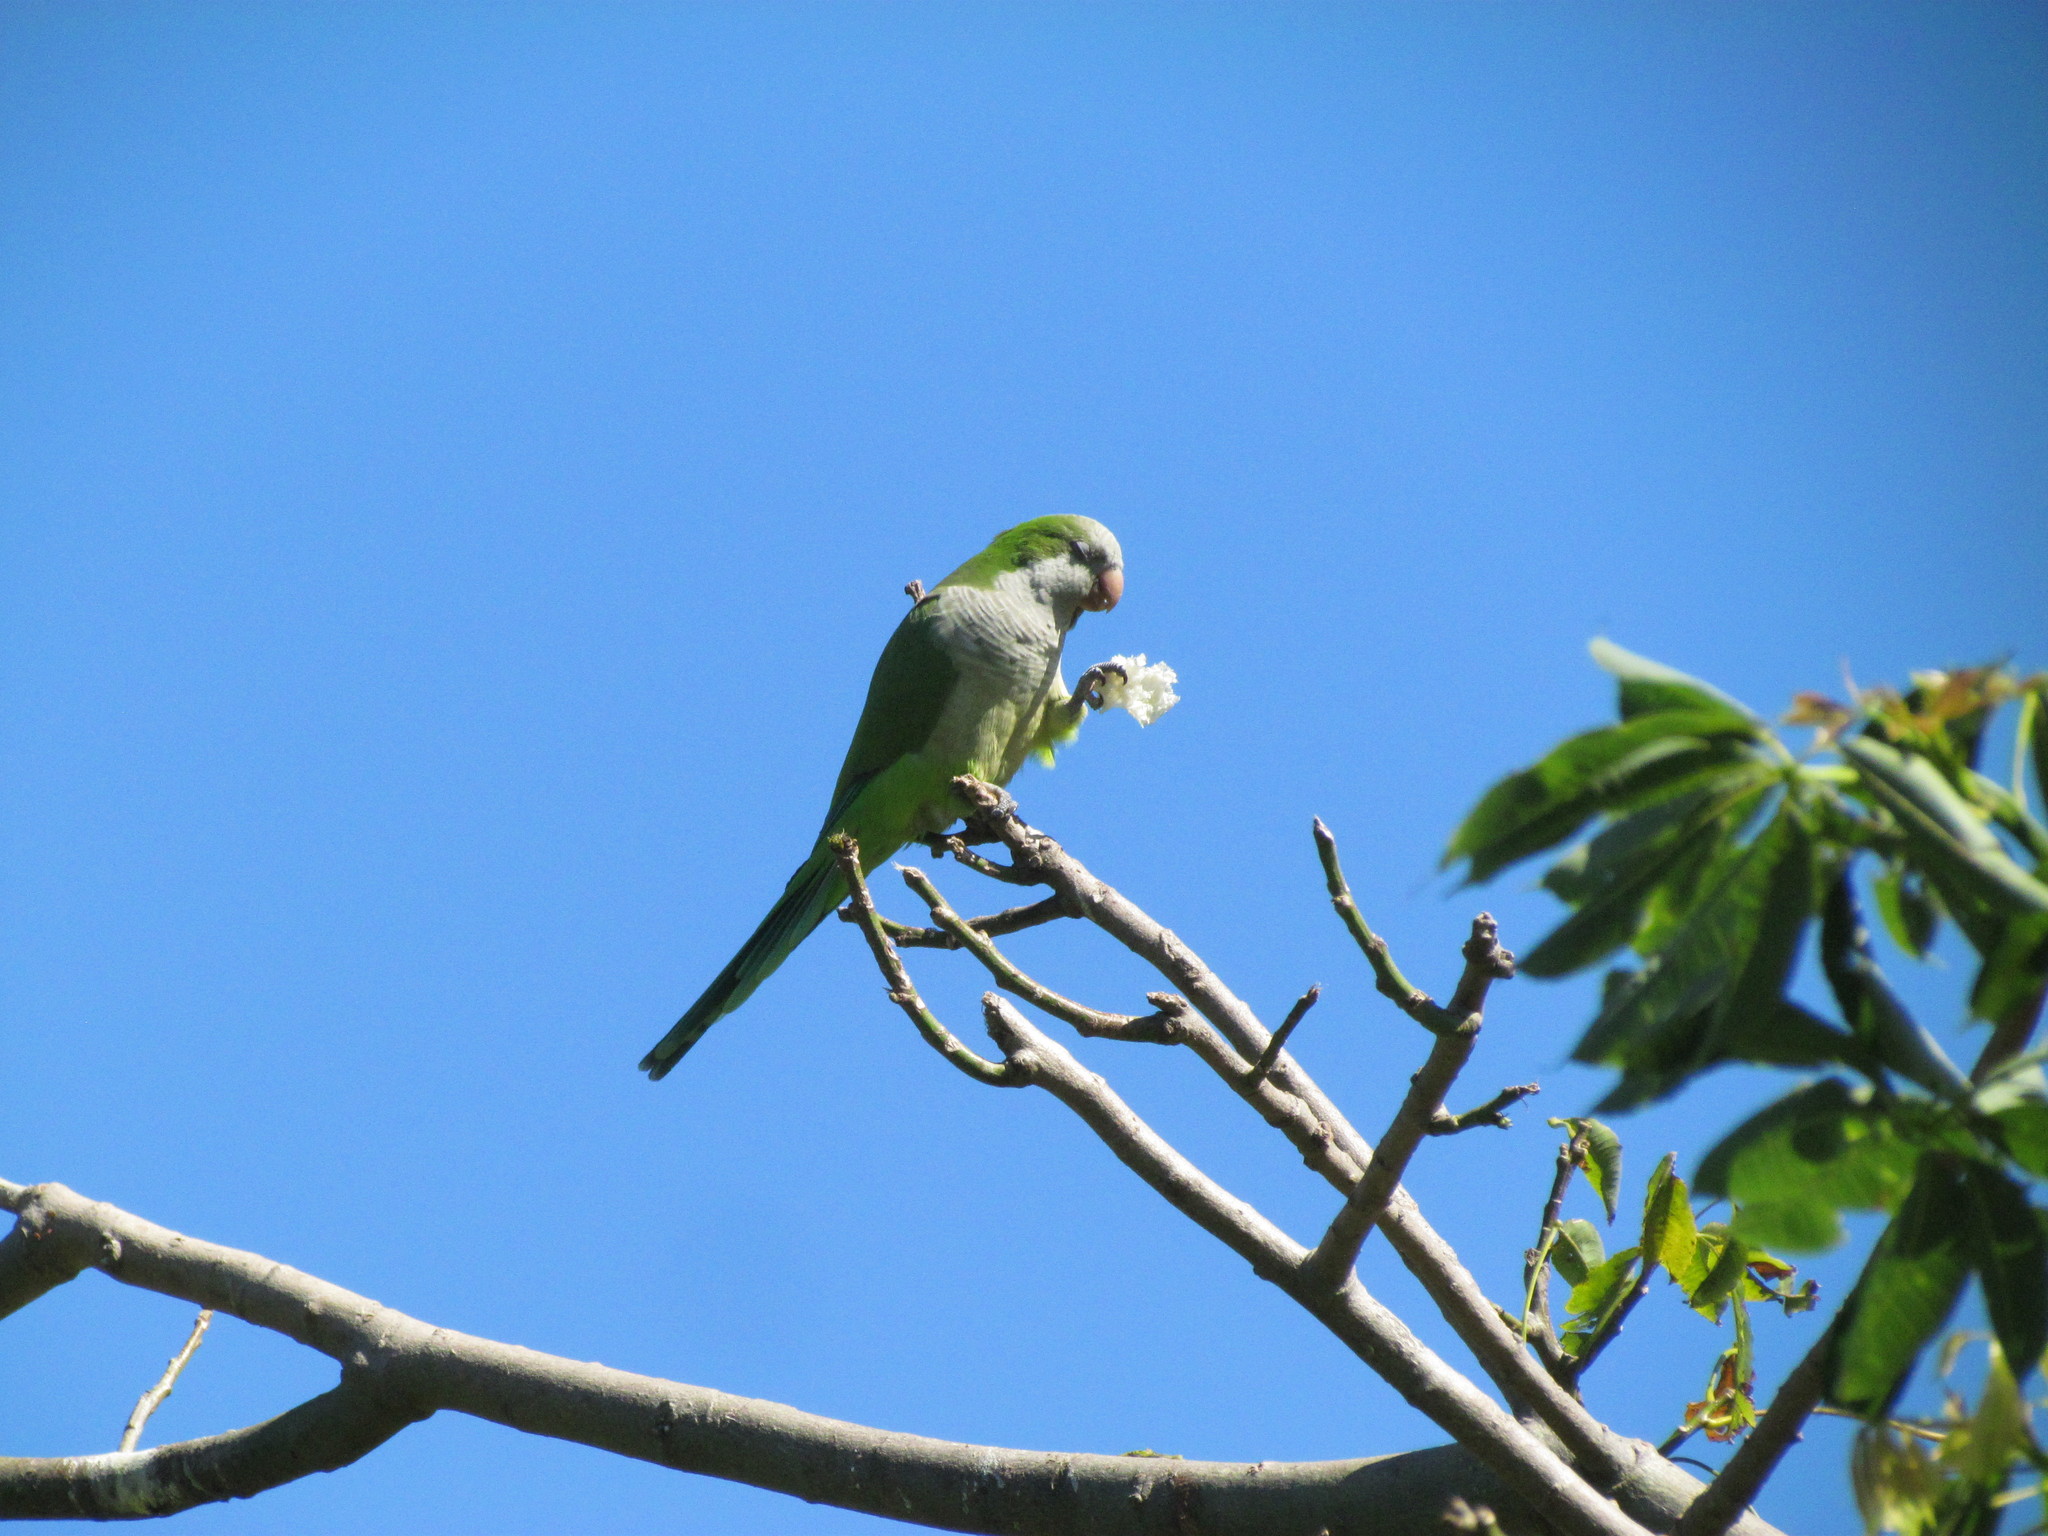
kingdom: Animalia
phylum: Chordata
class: Aves
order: Psittaciformes
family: Psittacidae
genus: Myiopsitta
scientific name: Myiopsitta monachus
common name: Monk parakeet
